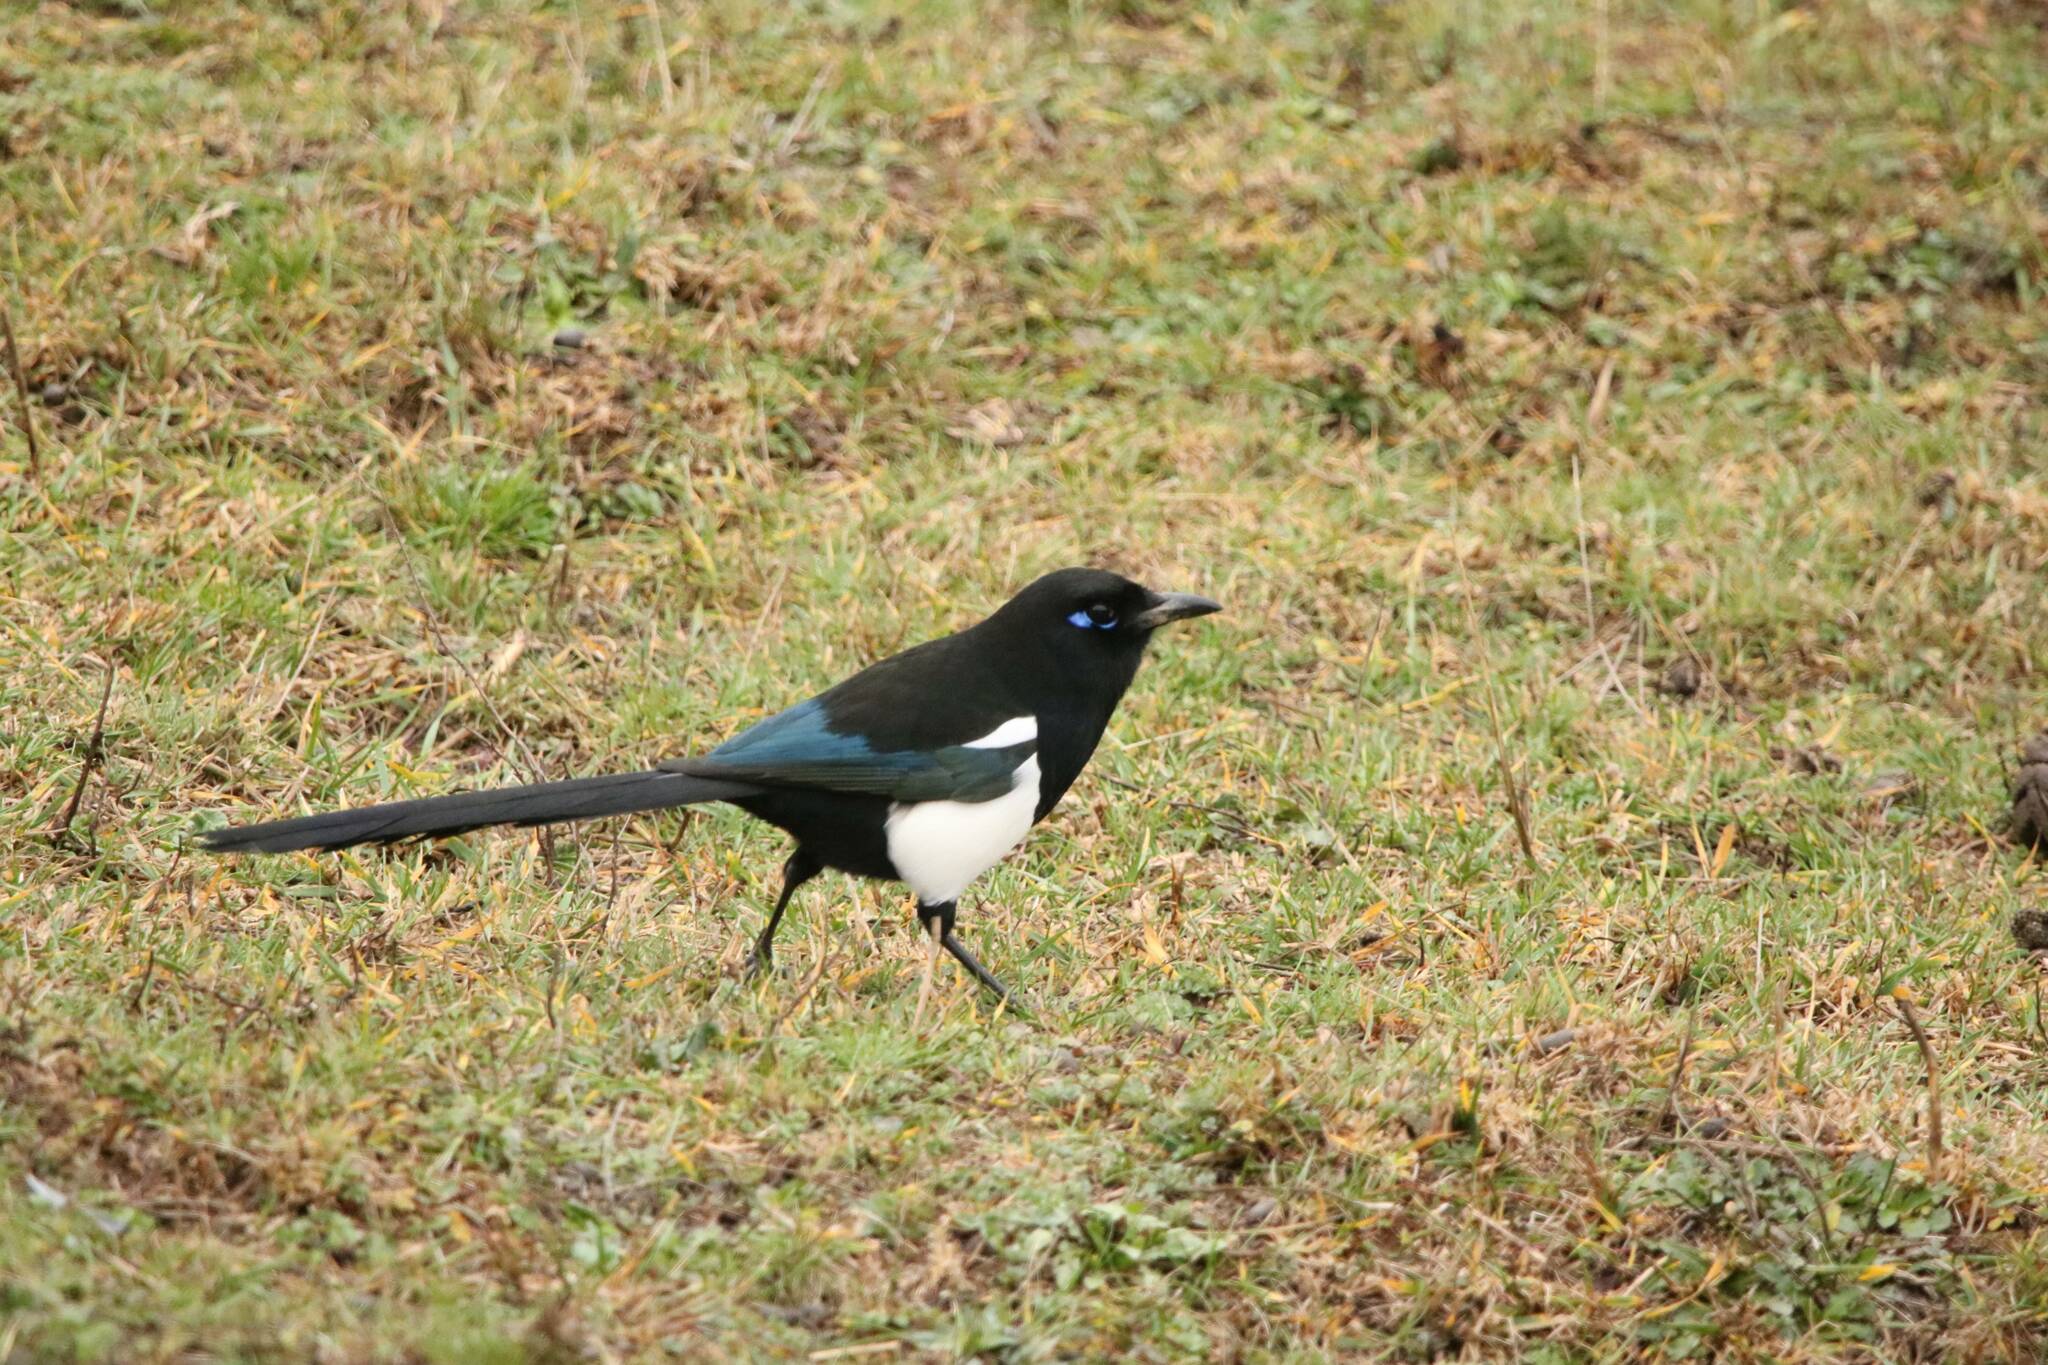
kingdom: Animalia
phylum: Chordata
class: Aves
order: Passeriformes
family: Corvidae
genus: Pica
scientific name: Pica mauritanica
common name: Maghreb magpie
